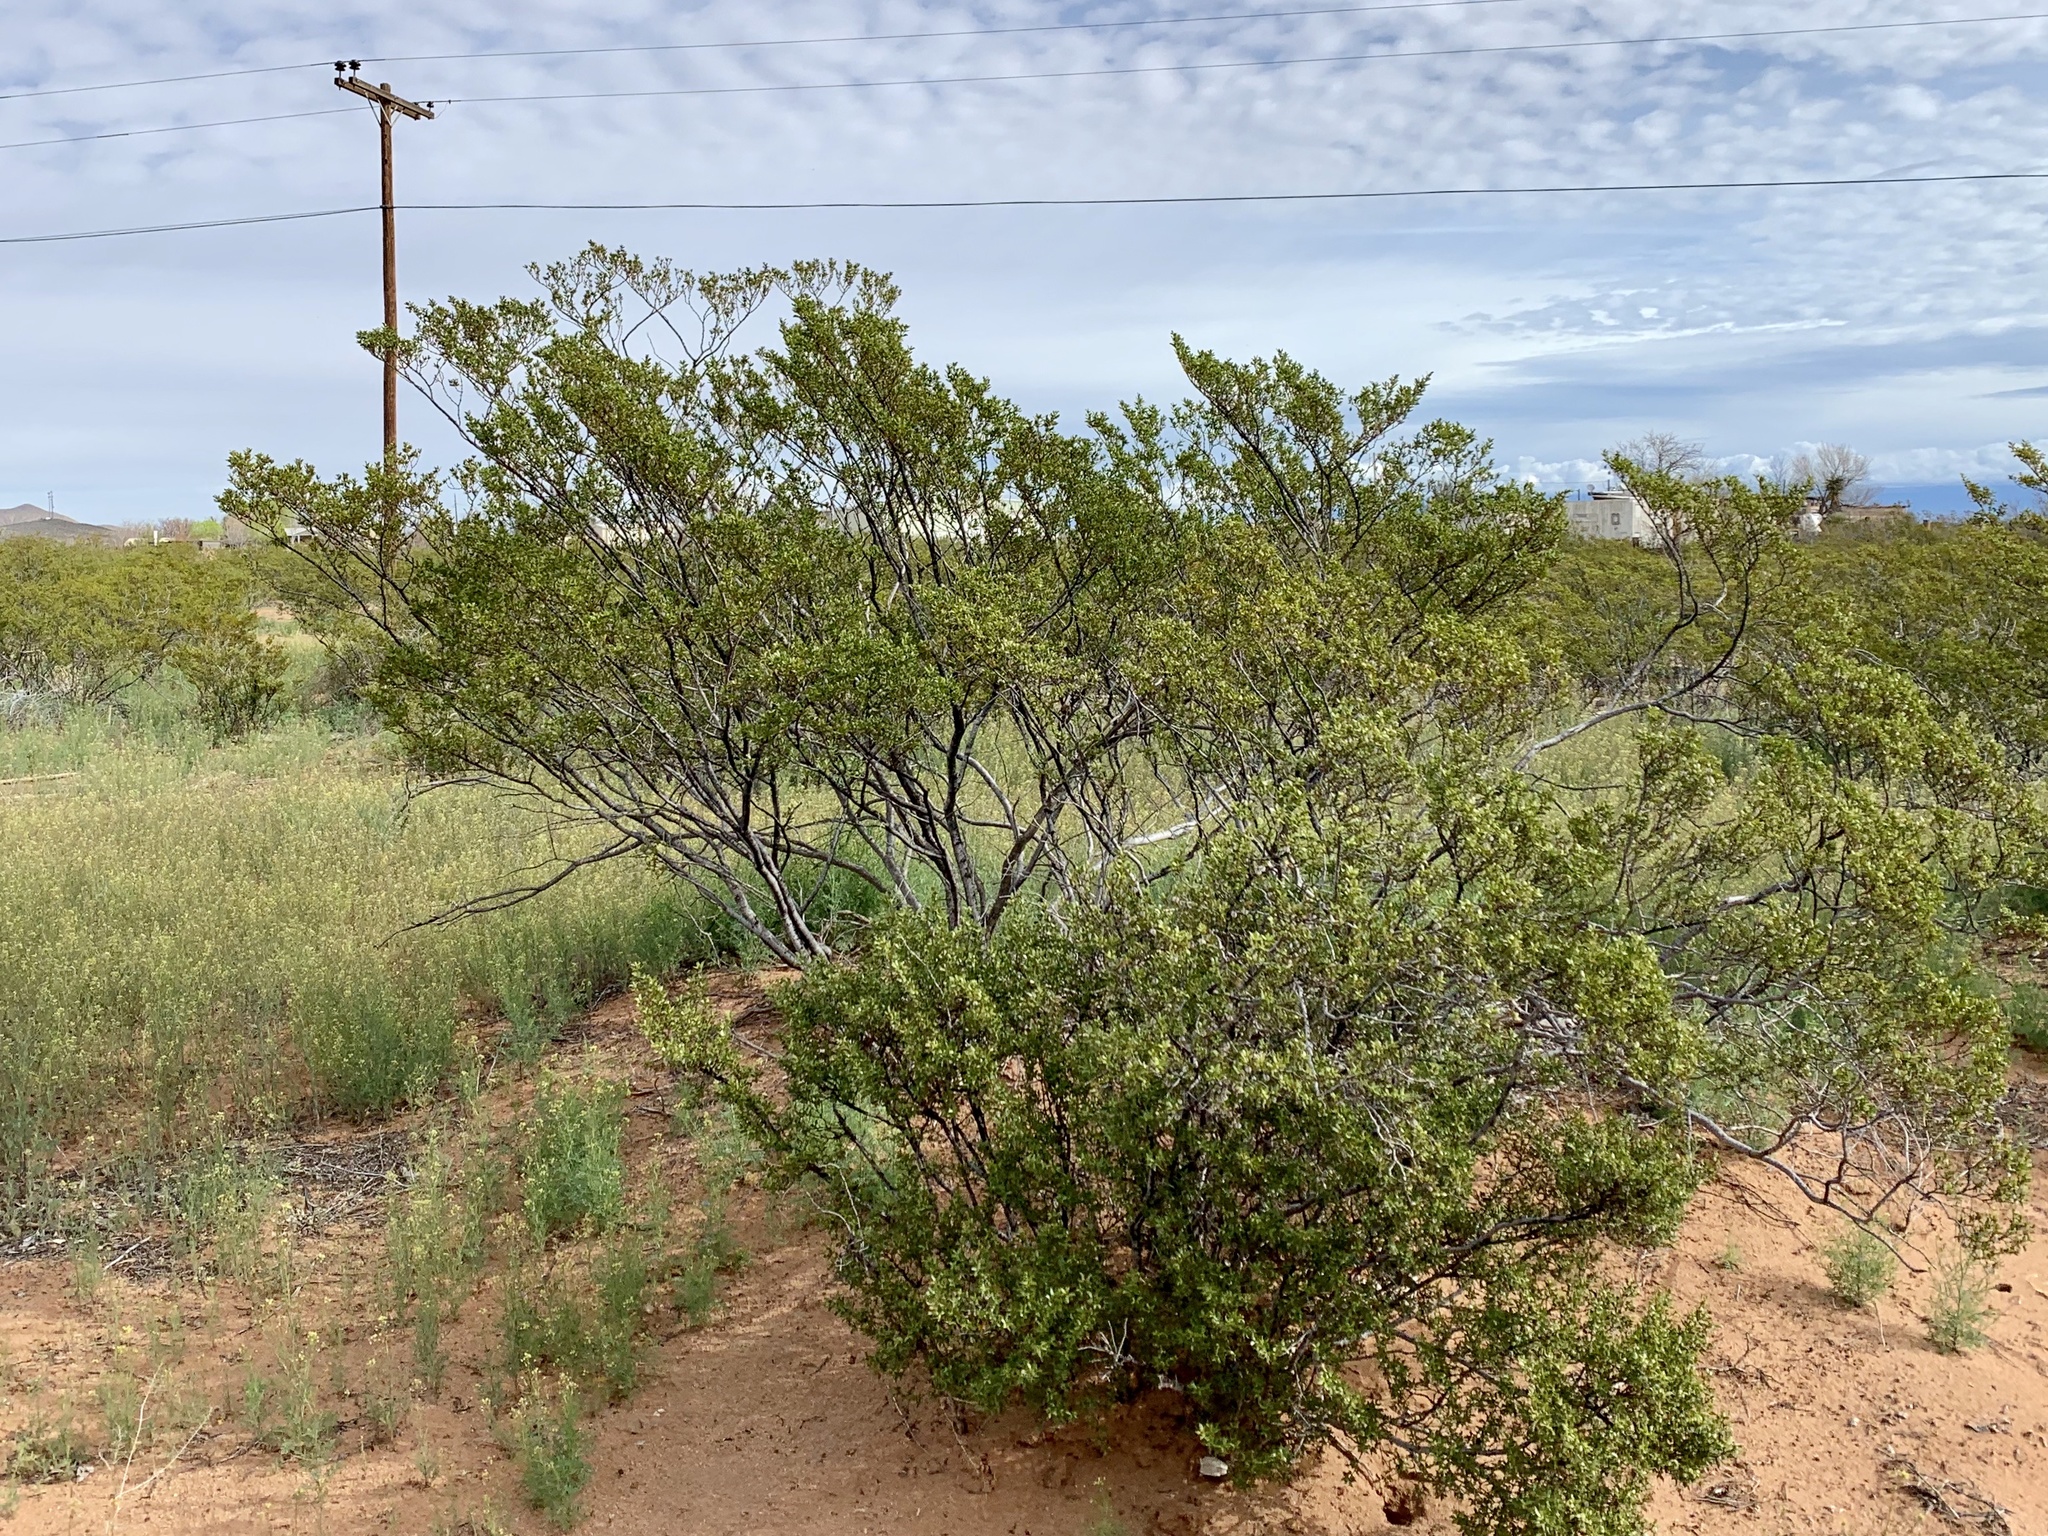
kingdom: Plantae
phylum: Tracheophyta
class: Magnoliopsida
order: Zygophyllales
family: Zygophyllaceae
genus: Larrea
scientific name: Larrea tridentata
